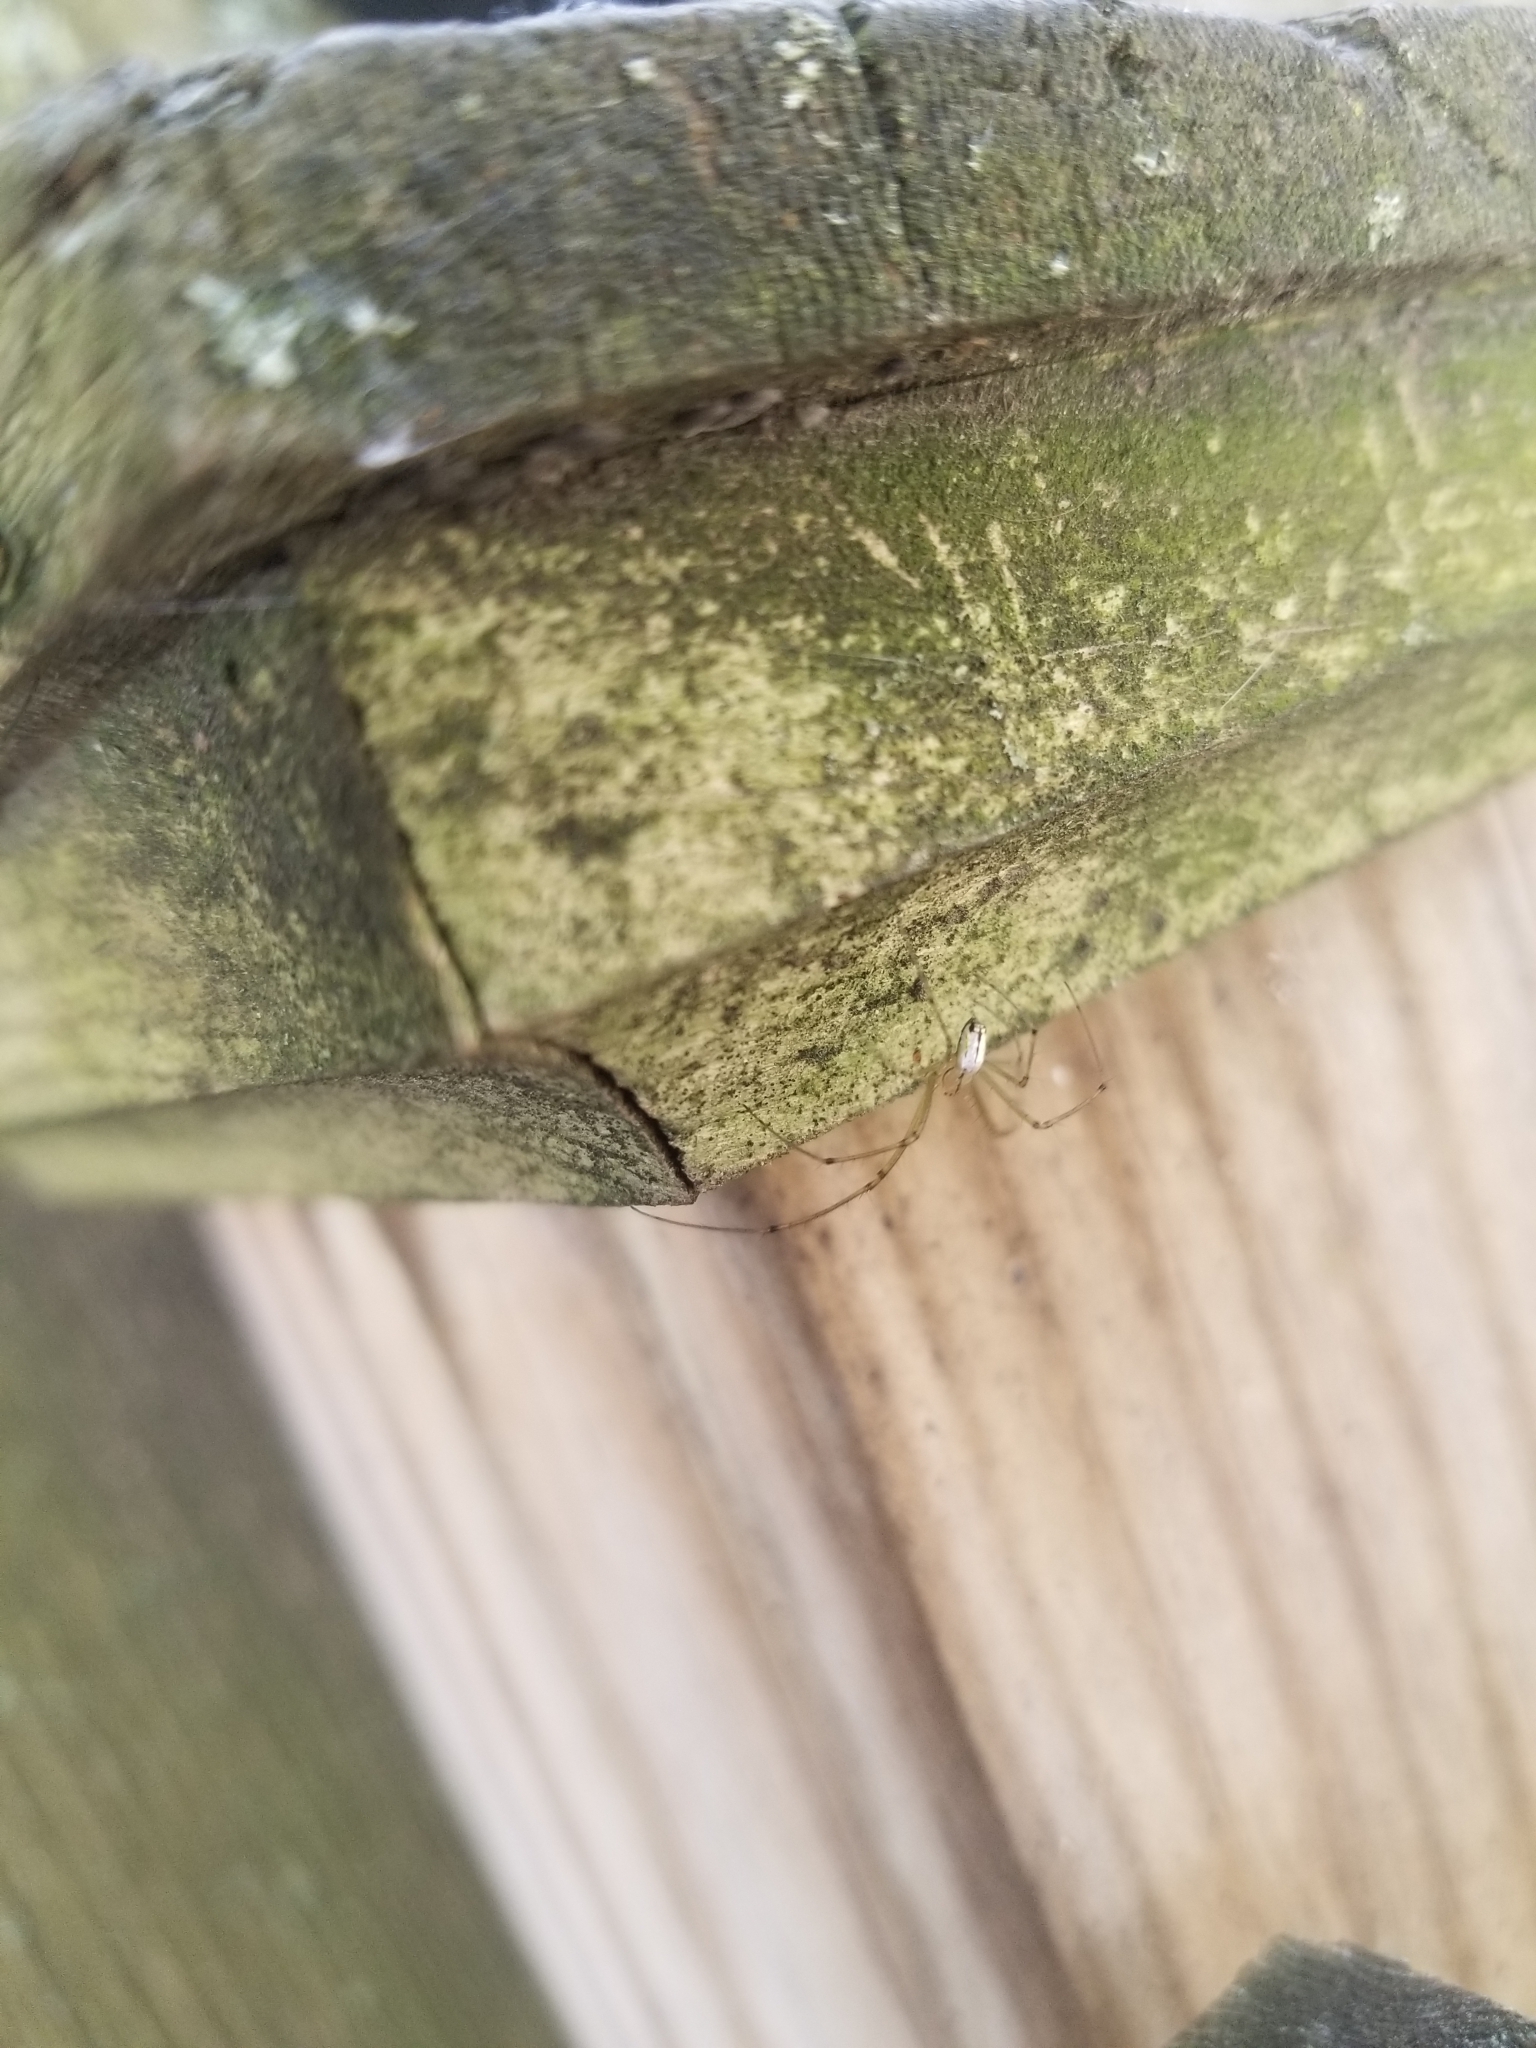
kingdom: Animalia
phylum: Arthropoda
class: Arachnida
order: Araneae
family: Tetragnathidae
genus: Leucauge
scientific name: Leucauge venusta
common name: Longjawed orb weavers
